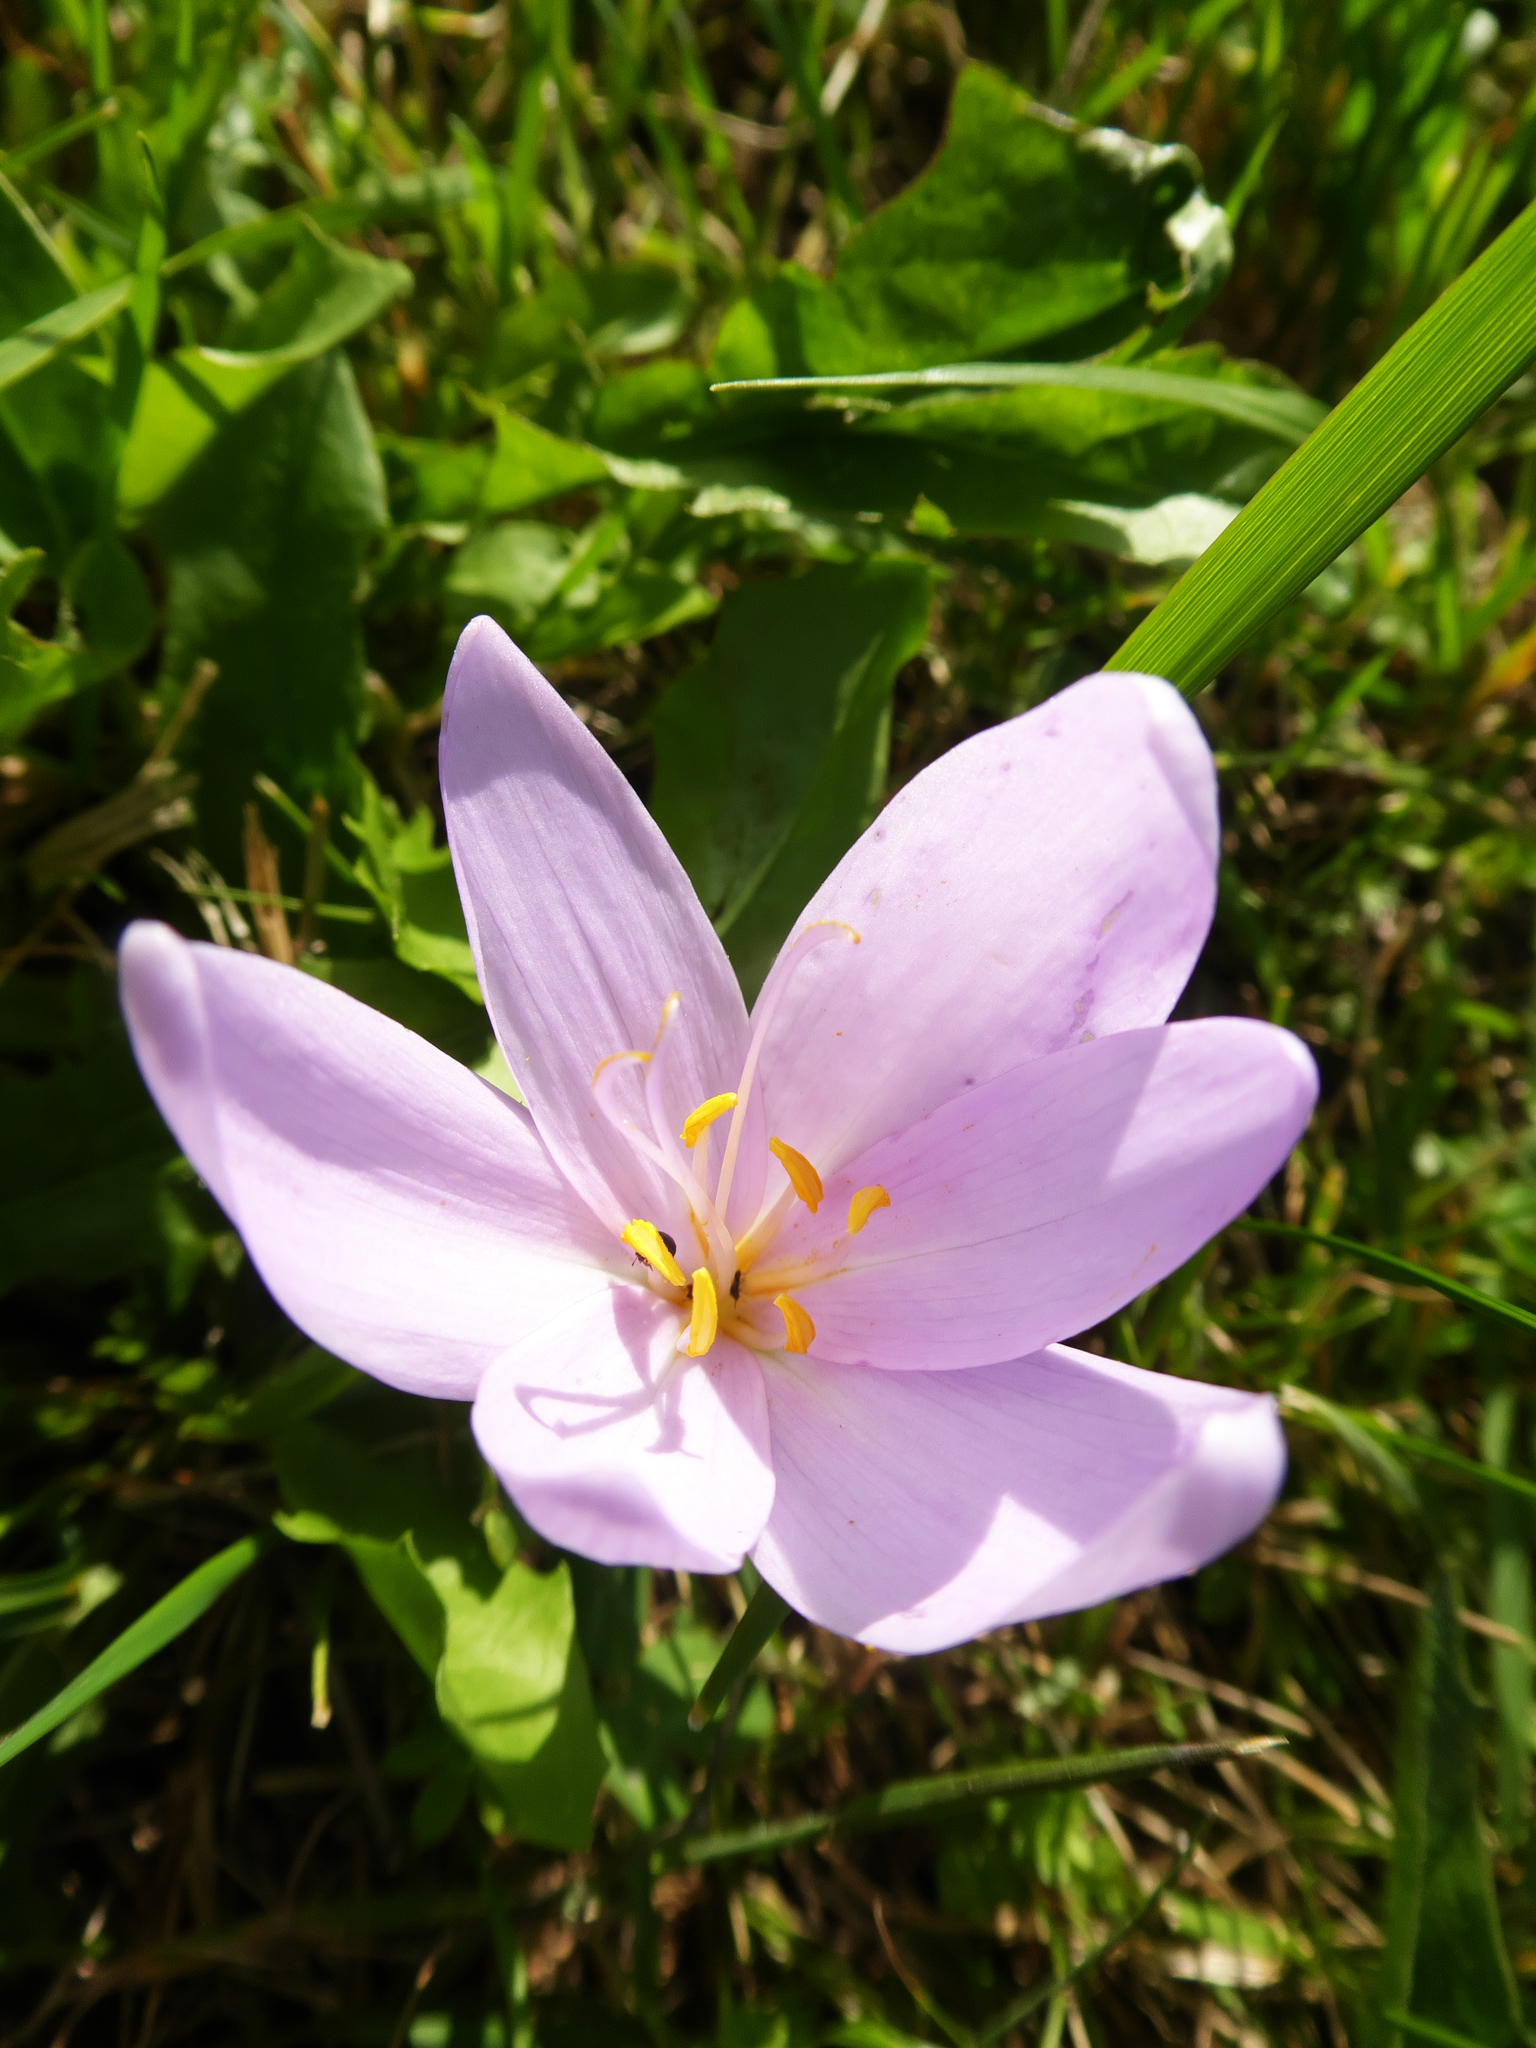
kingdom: Plantae
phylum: Tracheophyta
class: Liliopsida
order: Liliales
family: Colchicaceae
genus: Colchicum
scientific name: Colchicum autumnale
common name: Autumn crocus
